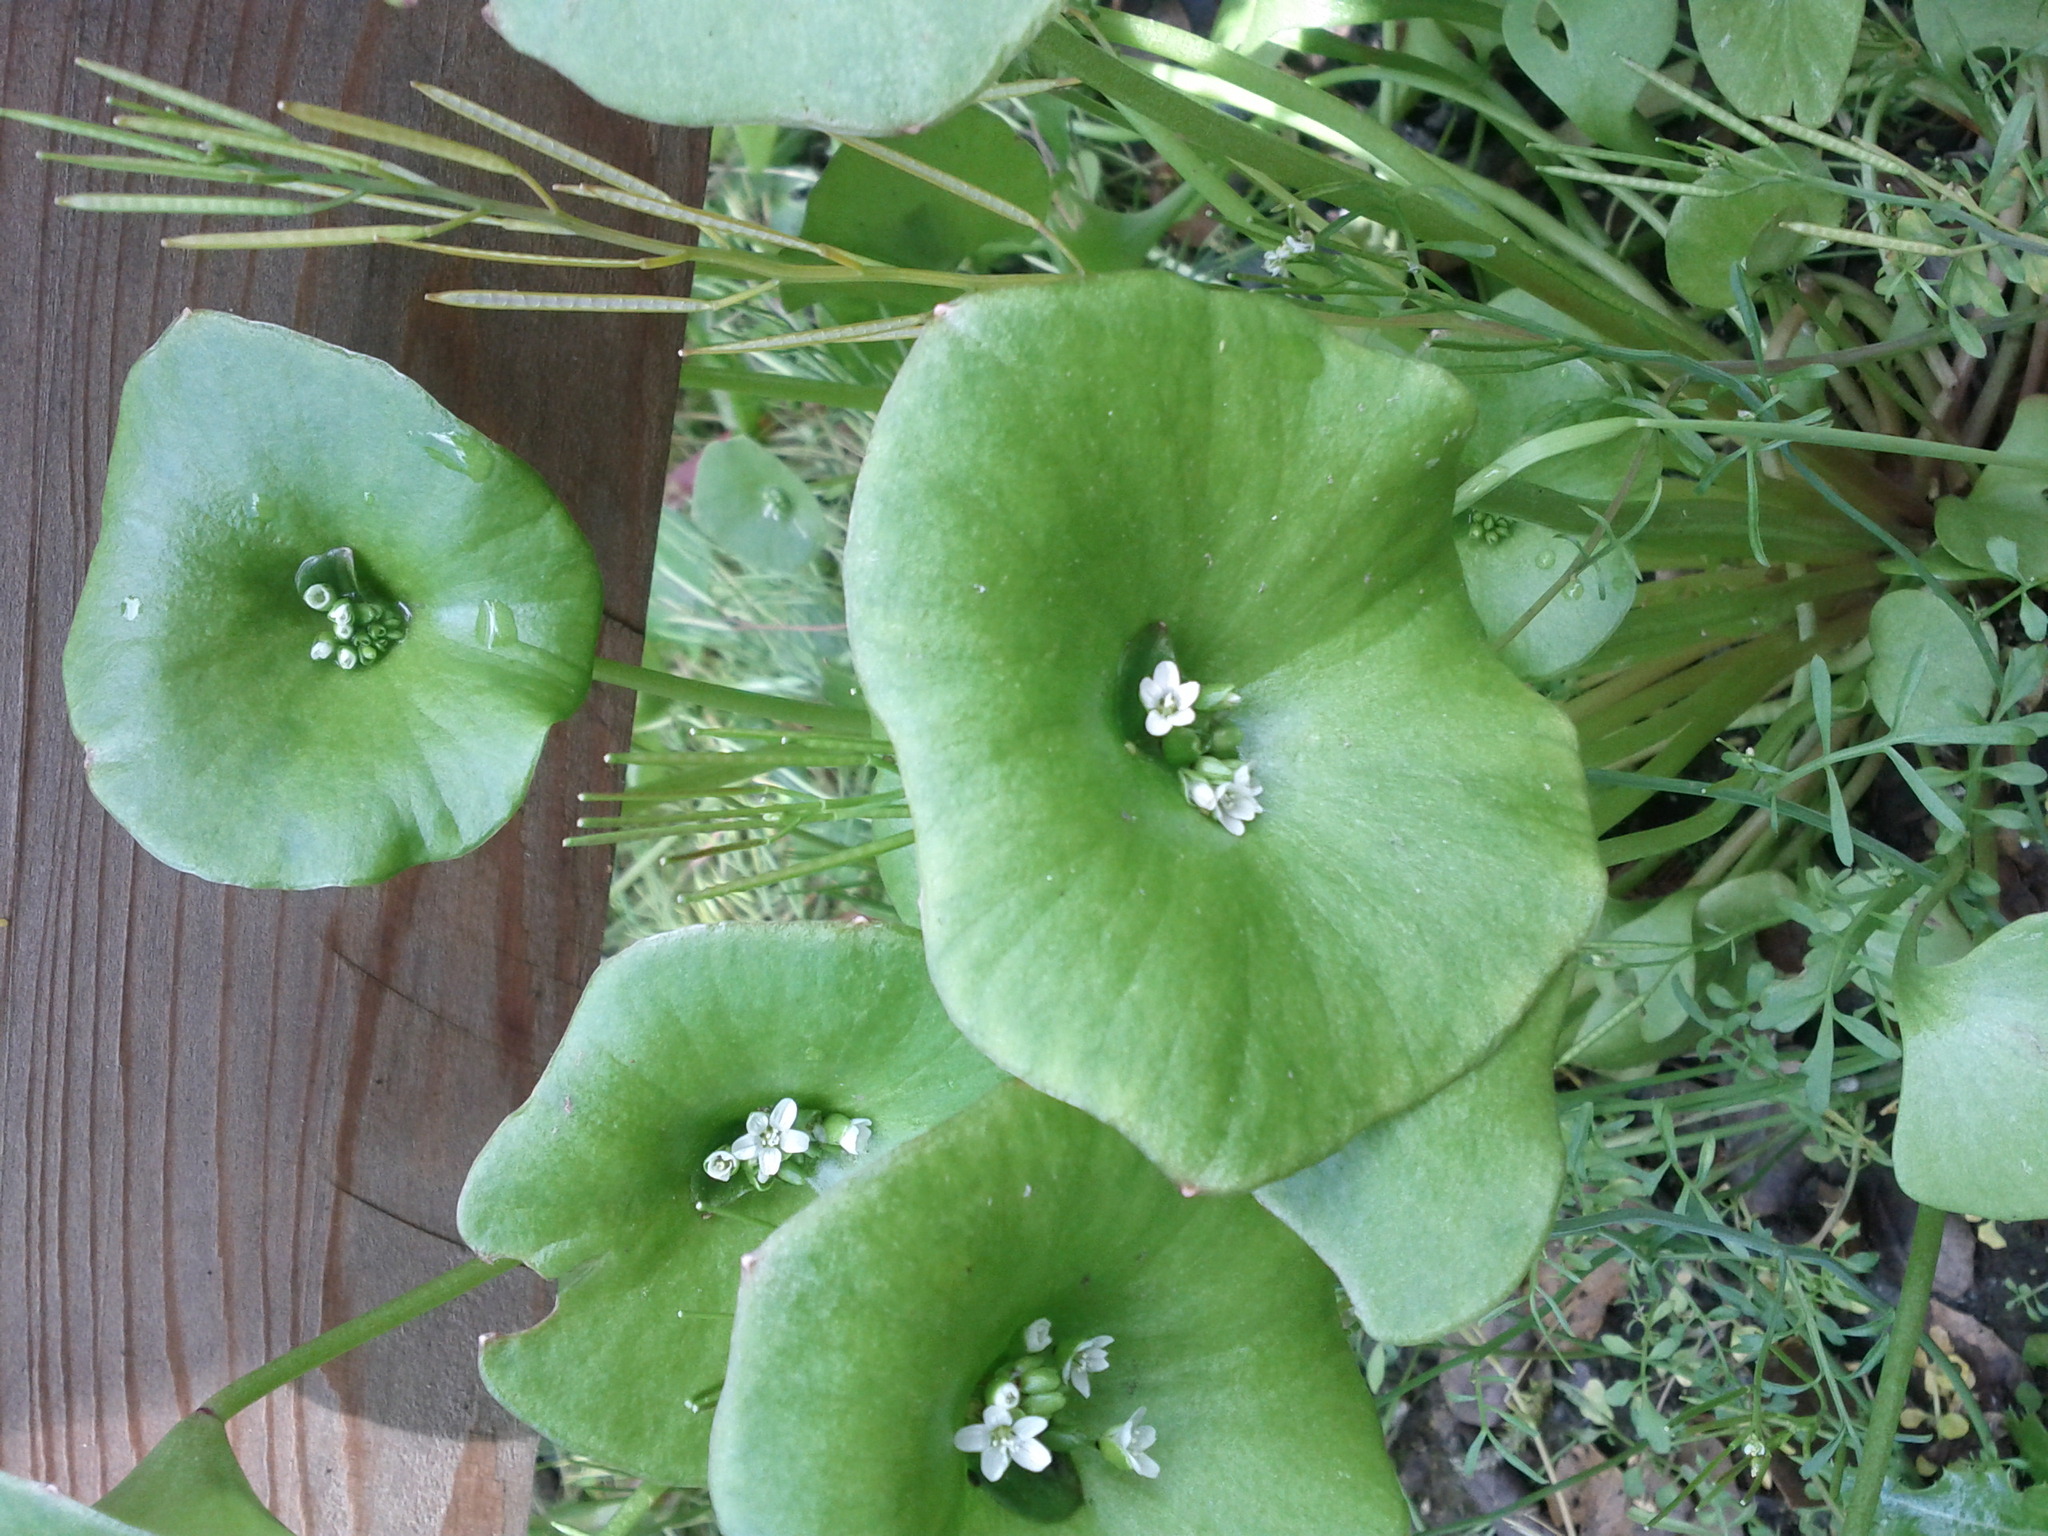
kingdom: Plantae
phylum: Tracheophyta
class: Magnoliopsida
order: Caryophyllales
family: Montiaceae
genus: Claytonia
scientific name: Claytonia perfoliata
